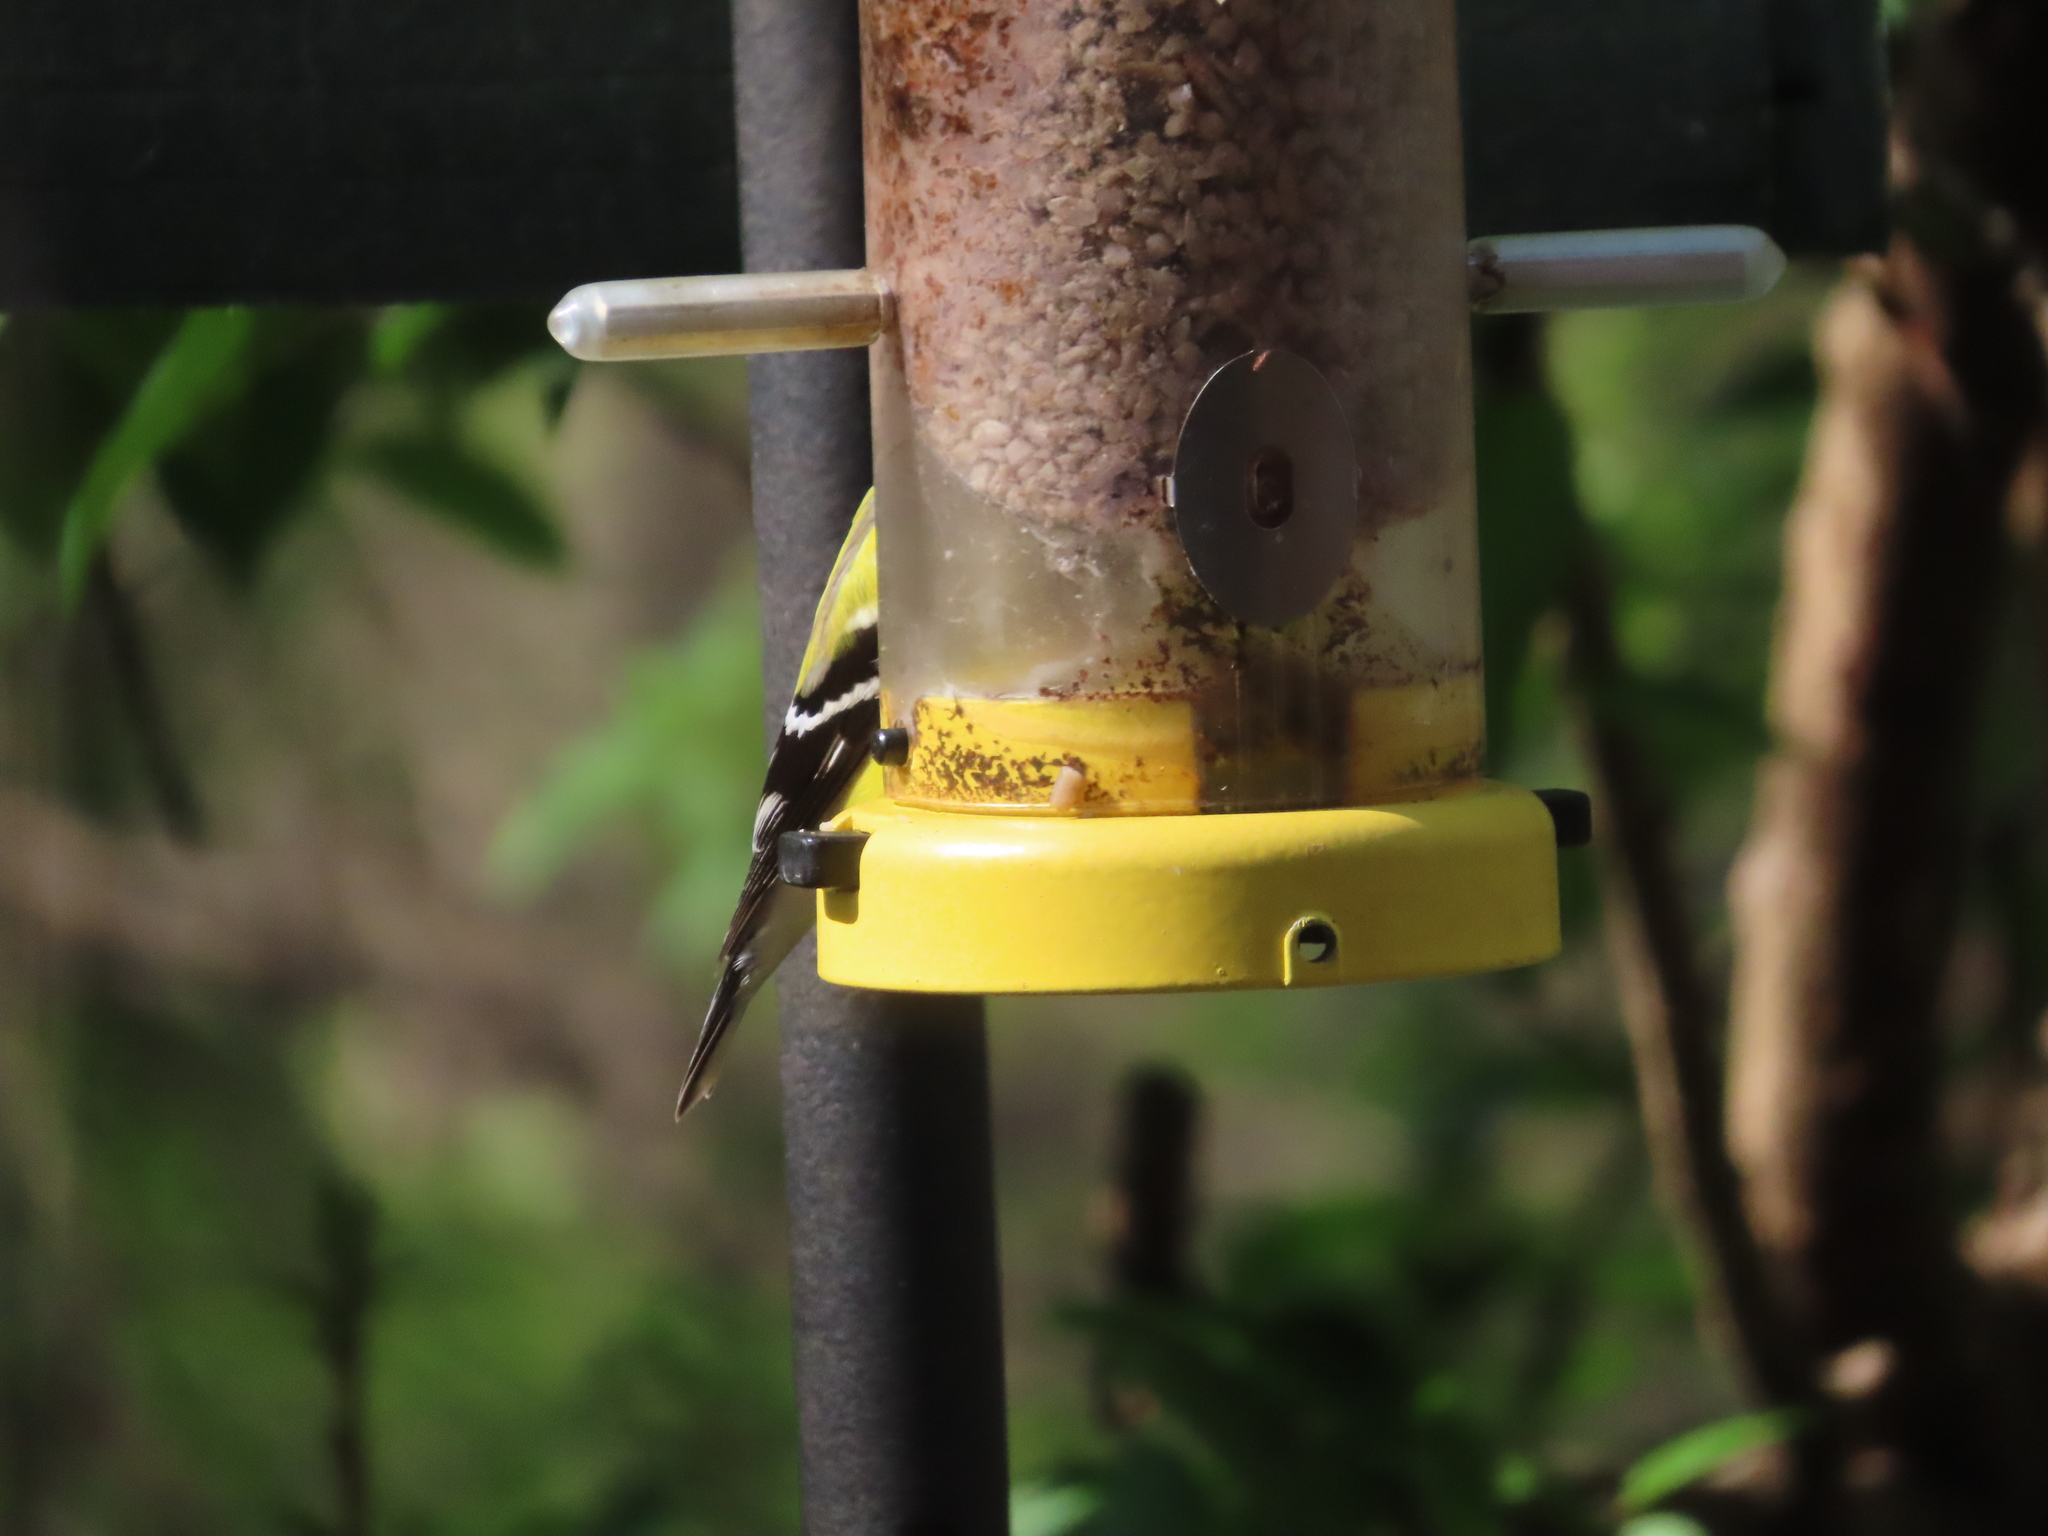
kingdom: Animalia
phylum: Chordata
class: Aves
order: Passeriformes
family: Fringillidae
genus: Spinus
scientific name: Spinus tristis
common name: American goldfinch
